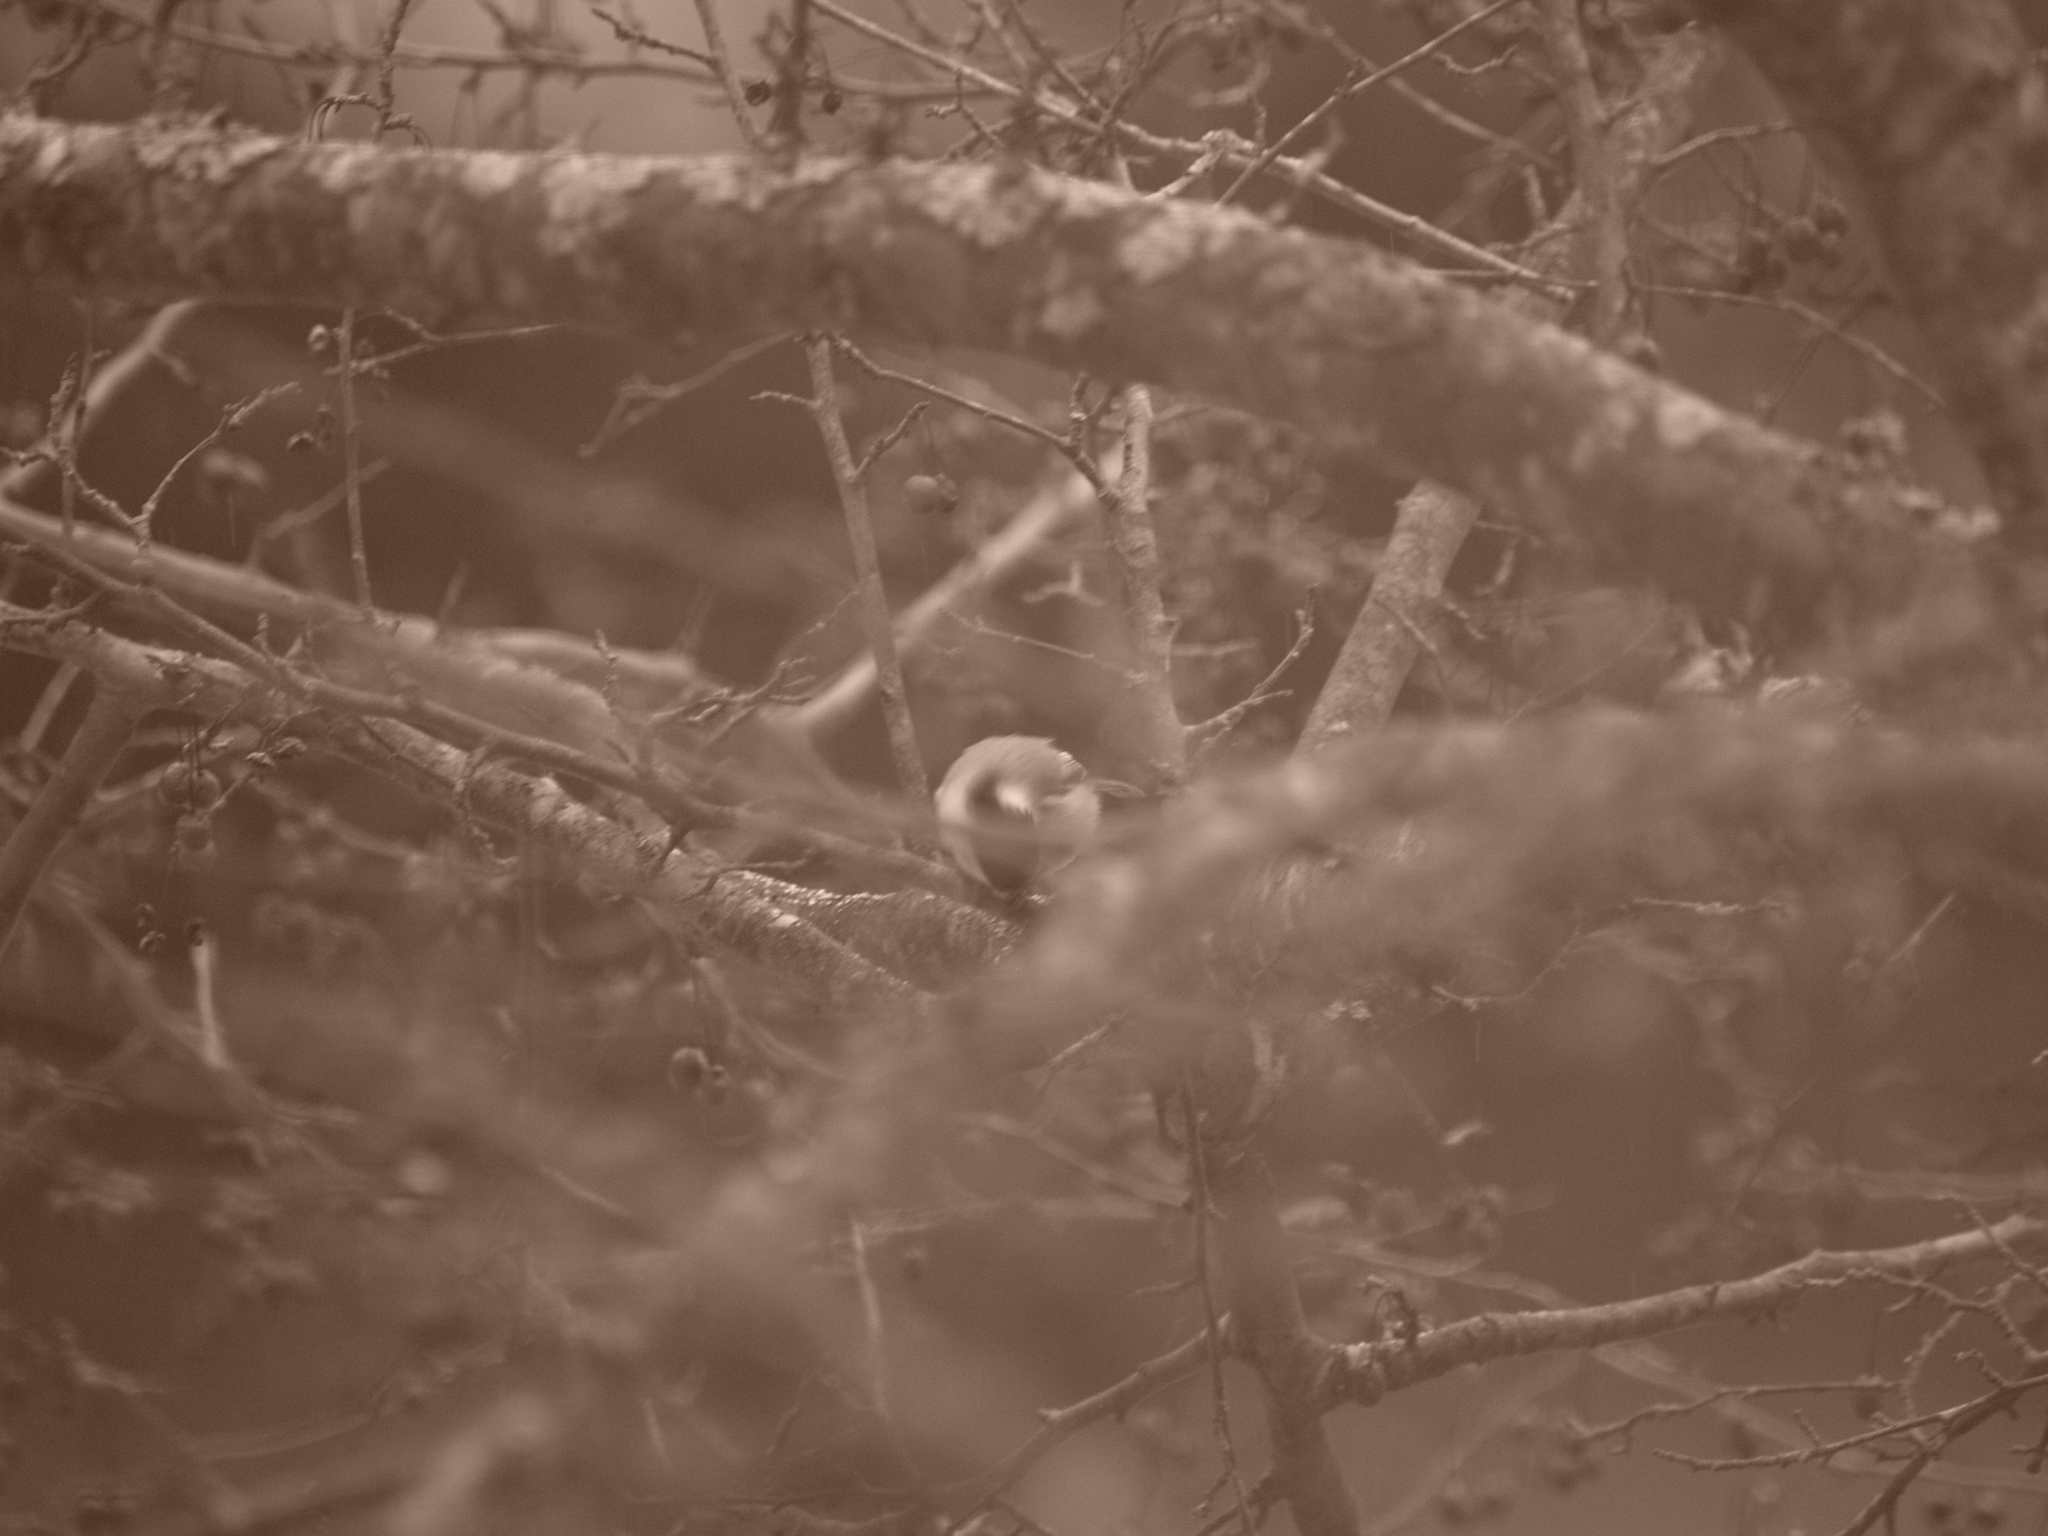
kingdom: Animalia
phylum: Chordata
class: Aves
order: Passeriformes
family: Paridae
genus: Poecile
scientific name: Poecile atricapillus
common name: Black-capped chickadee
